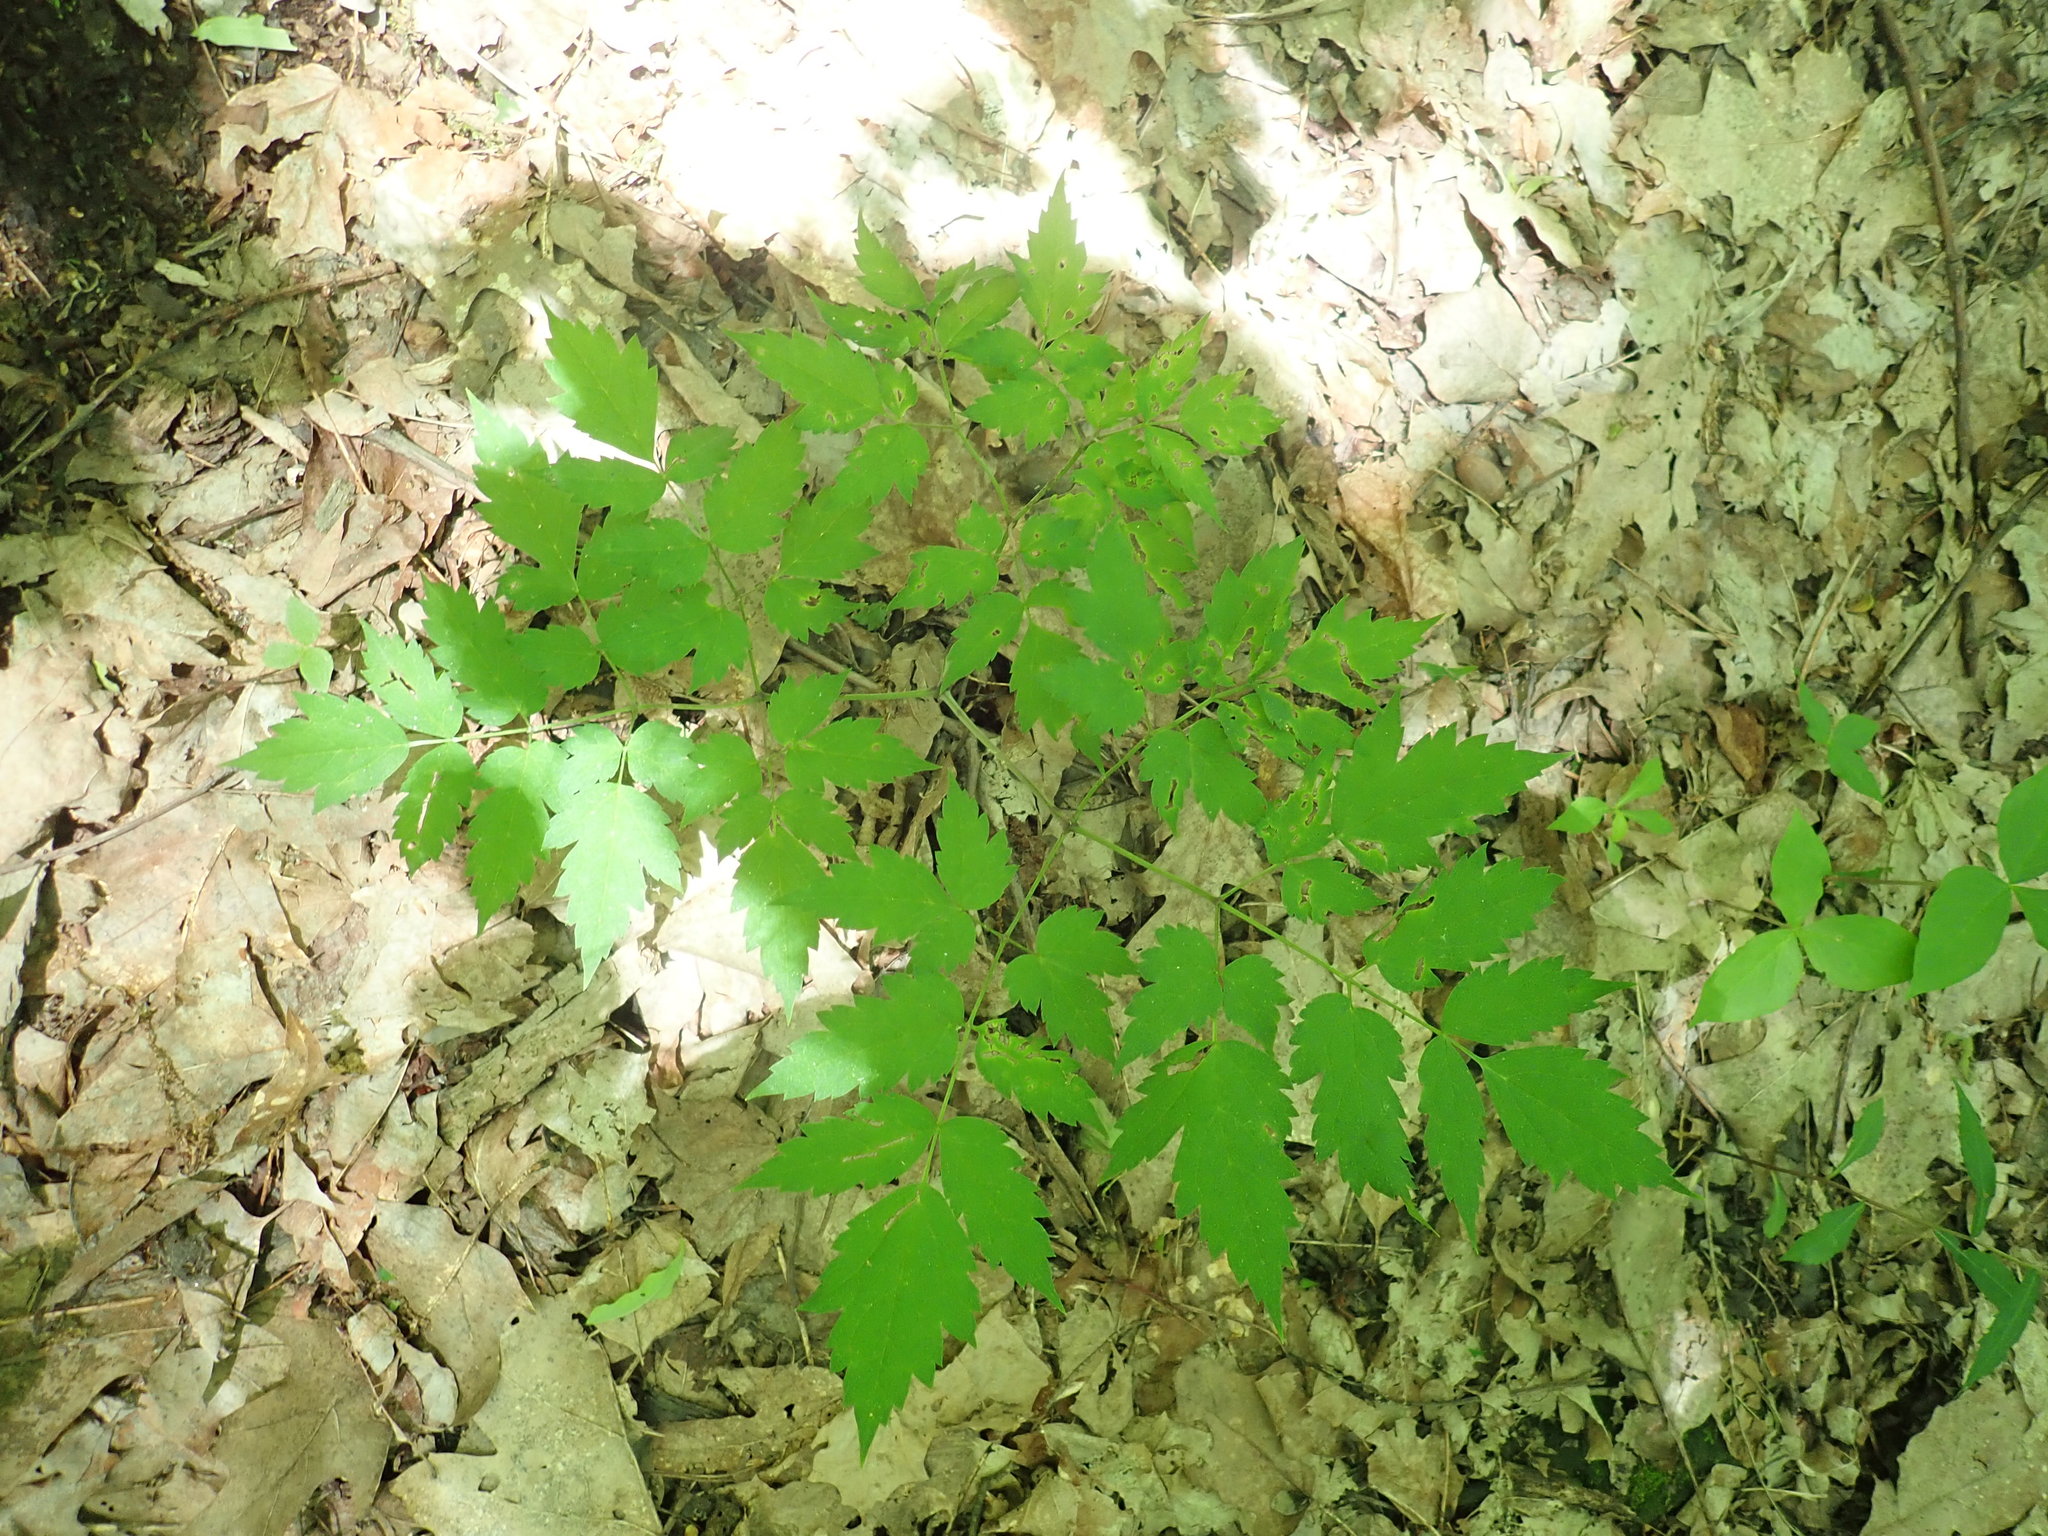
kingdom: Plantae
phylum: Tracheophyta
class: Magnoliopsida
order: Ranunculales
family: Ranunculaceae
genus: Actaea
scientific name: Actaea
